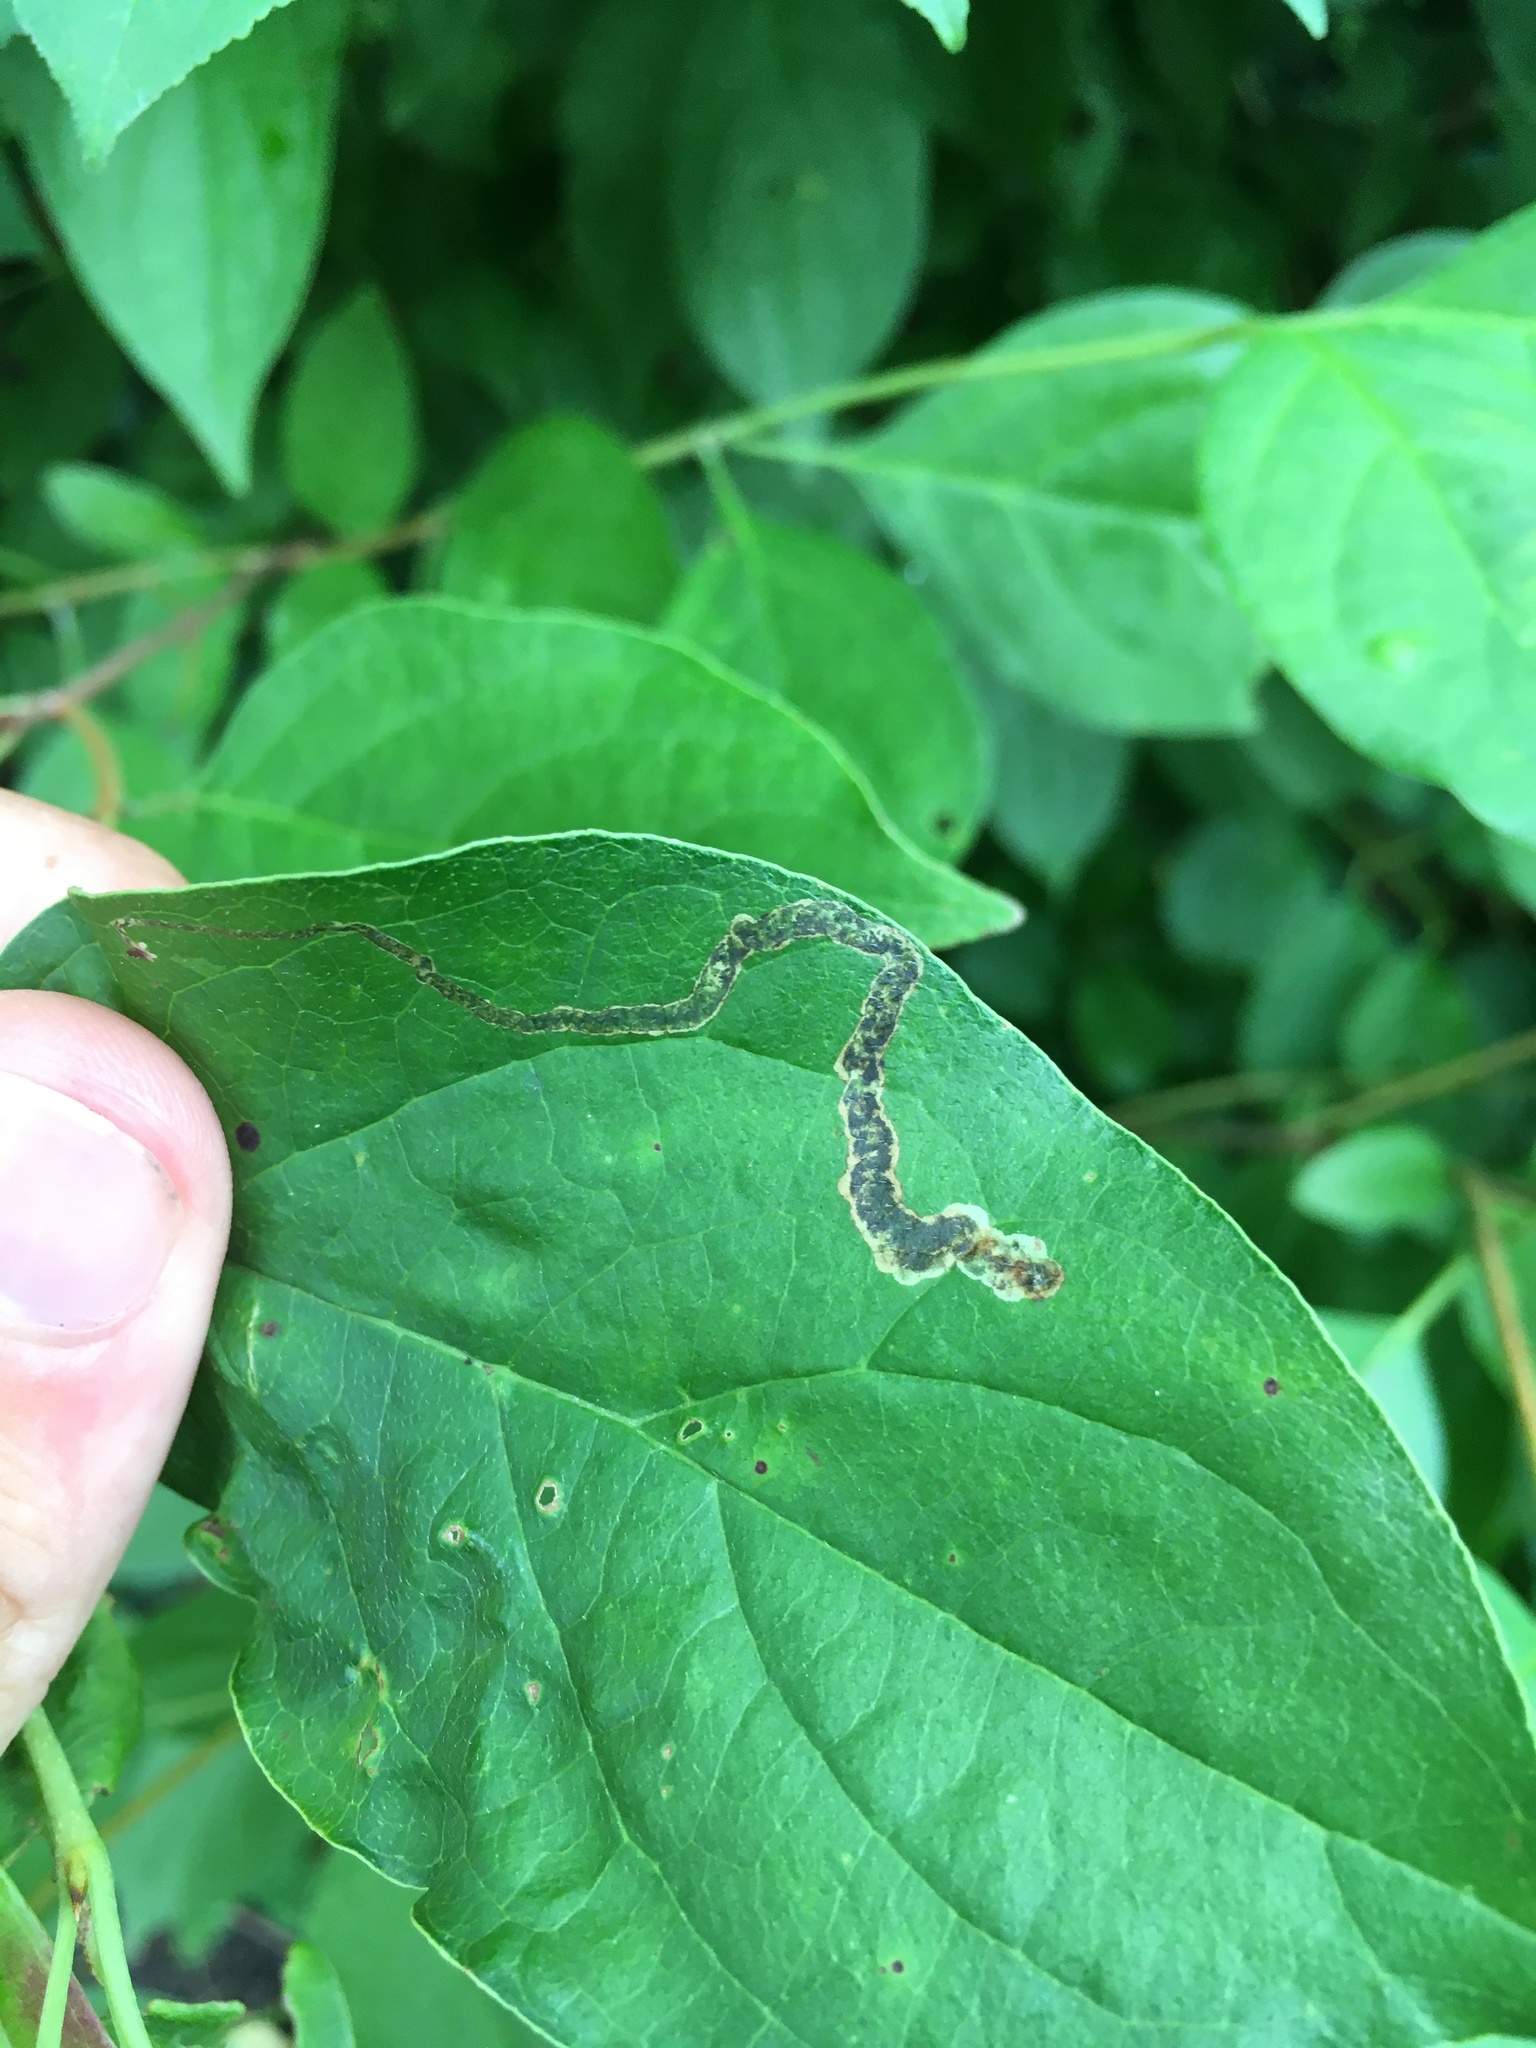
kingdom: Animalia
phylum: Arthropoda
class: Insecta
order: Diptera
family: Agromyzidae
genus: Phytomyza
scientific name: Phytomyza agromyzina
